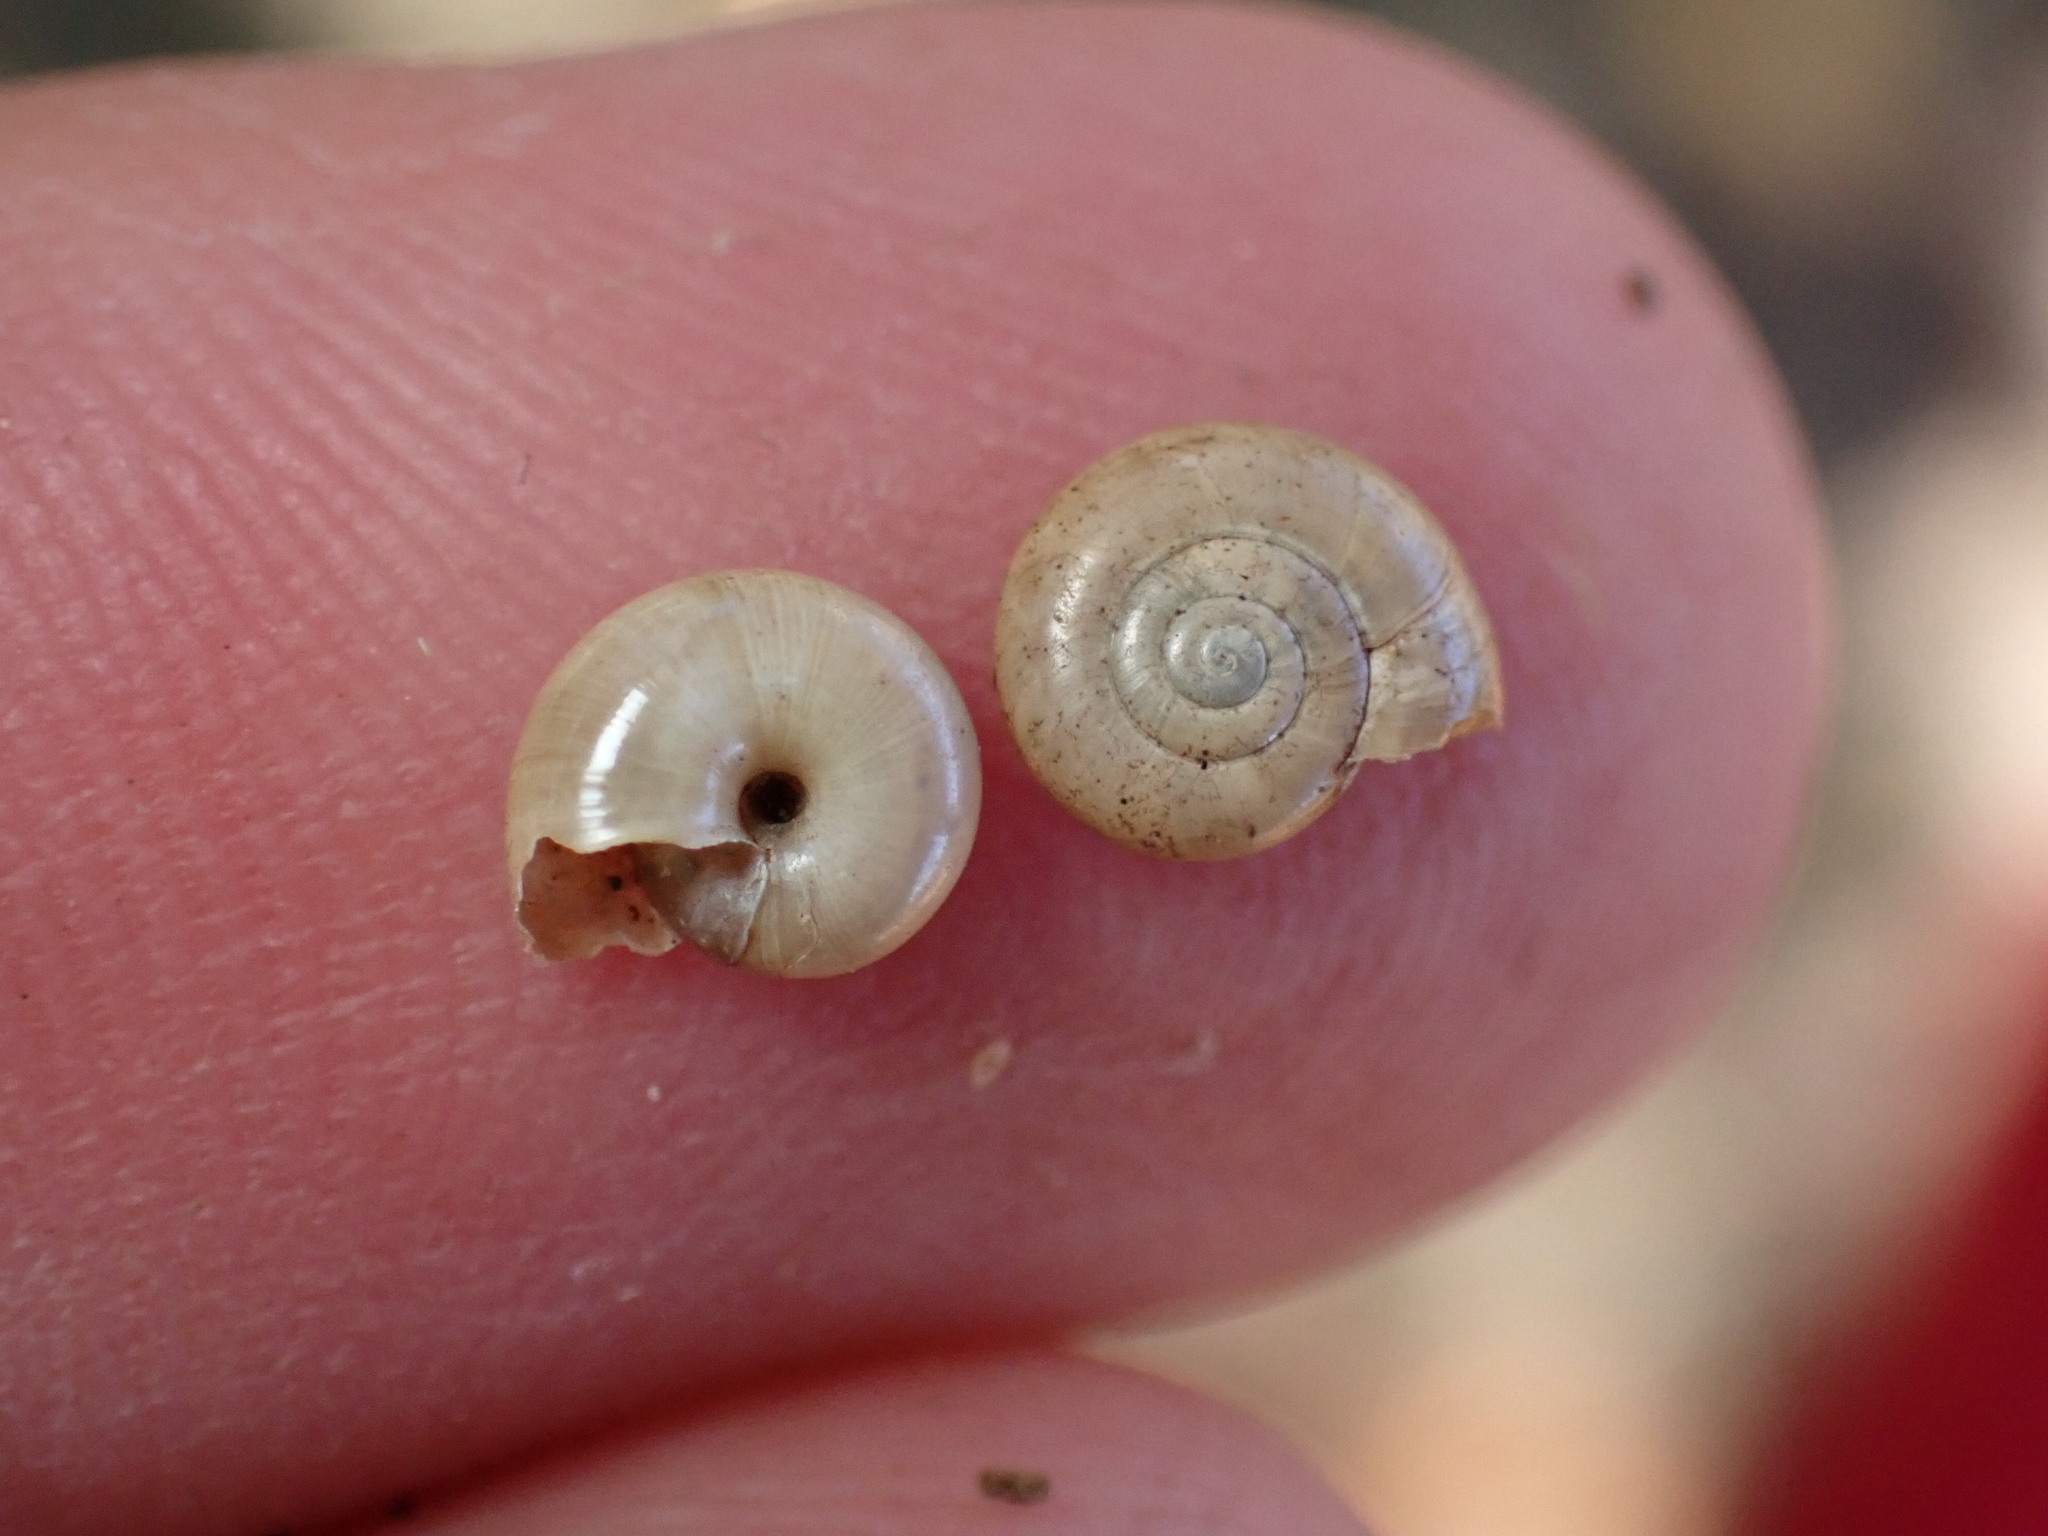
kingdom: Animalia
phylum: Mollusca
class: Gastropoda
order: Stylommatophora
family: Oxychilidae
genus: Oxychilus
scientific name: Oxychilus alliarius
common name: Garlic glass-snail
